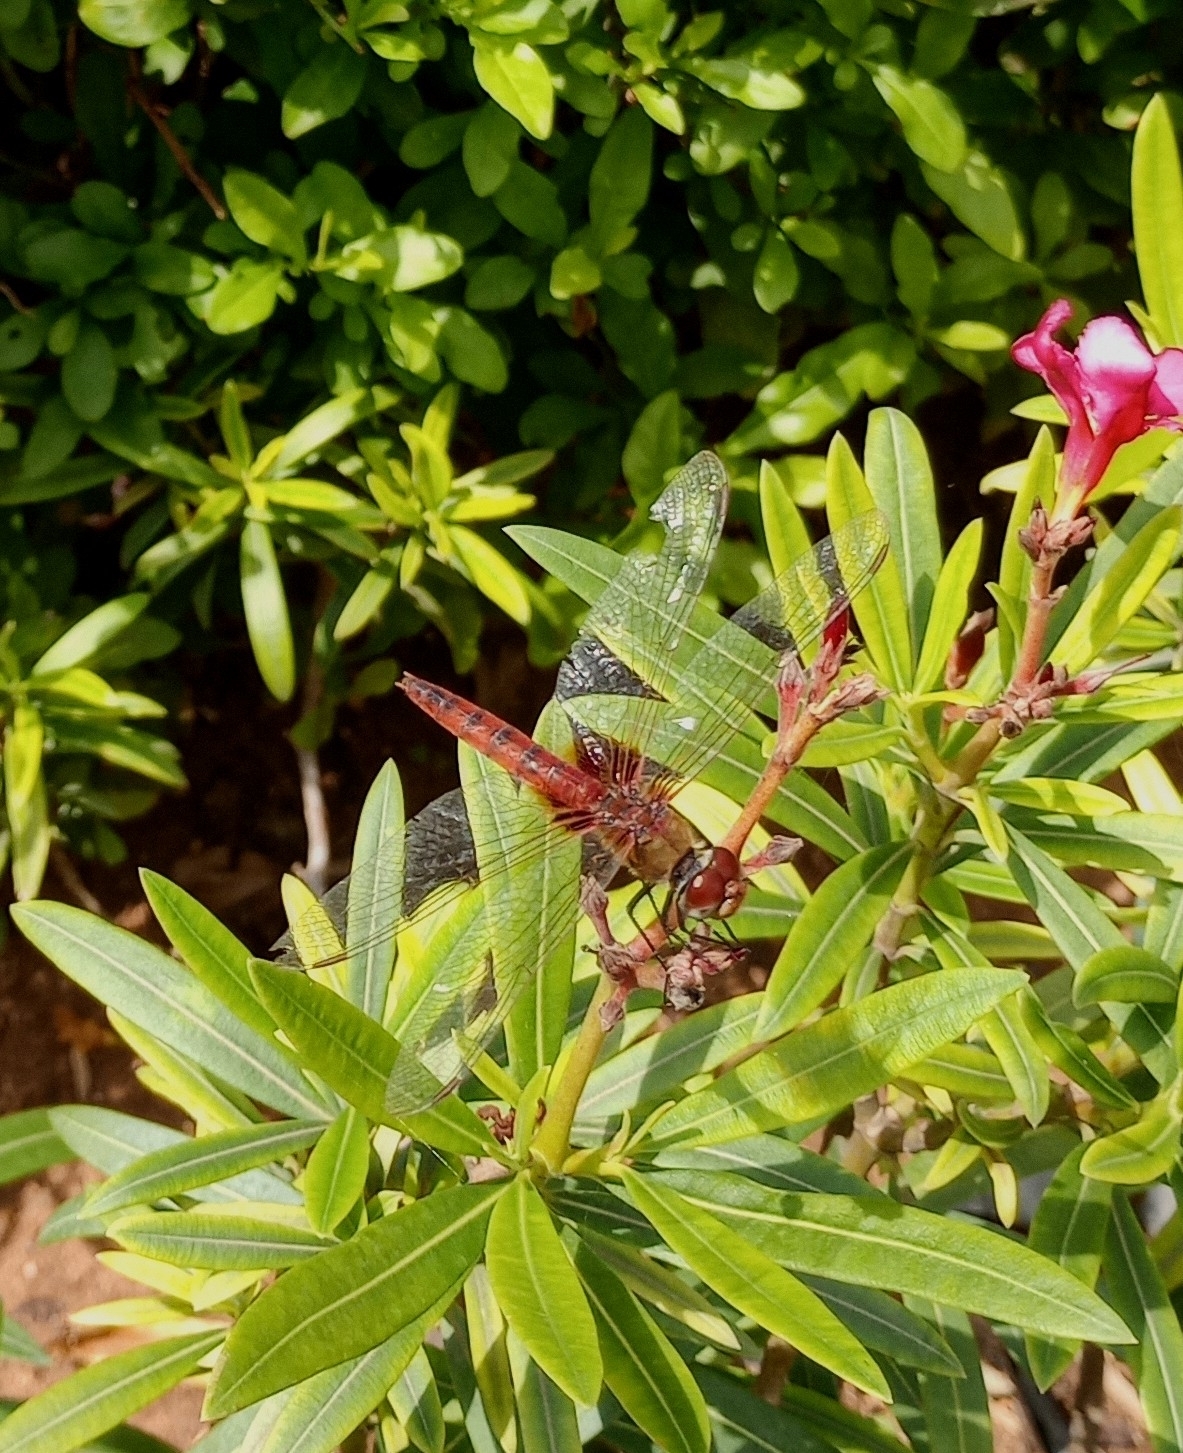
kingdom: Animalia
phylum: Arthropoda
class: Insecta
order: Odonata
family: Libellulidae
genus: Urothemis
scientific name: Urothemis signata
